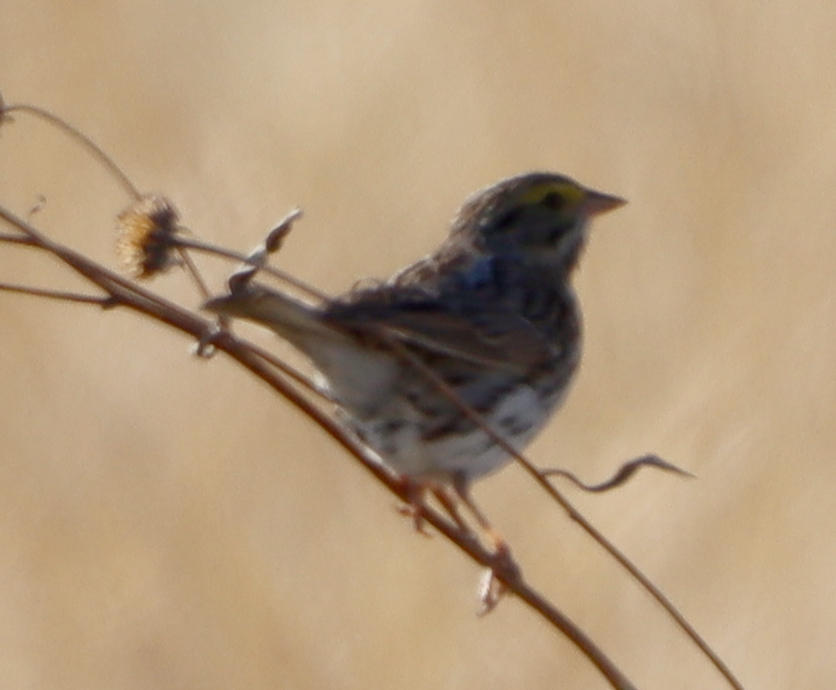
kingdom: Animalia
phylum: Chordata
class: Aves
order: Passeriformes
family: Passerellidae
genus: Passerculus
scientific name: Passerculus sandwichensis
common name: Savannah sparrow
